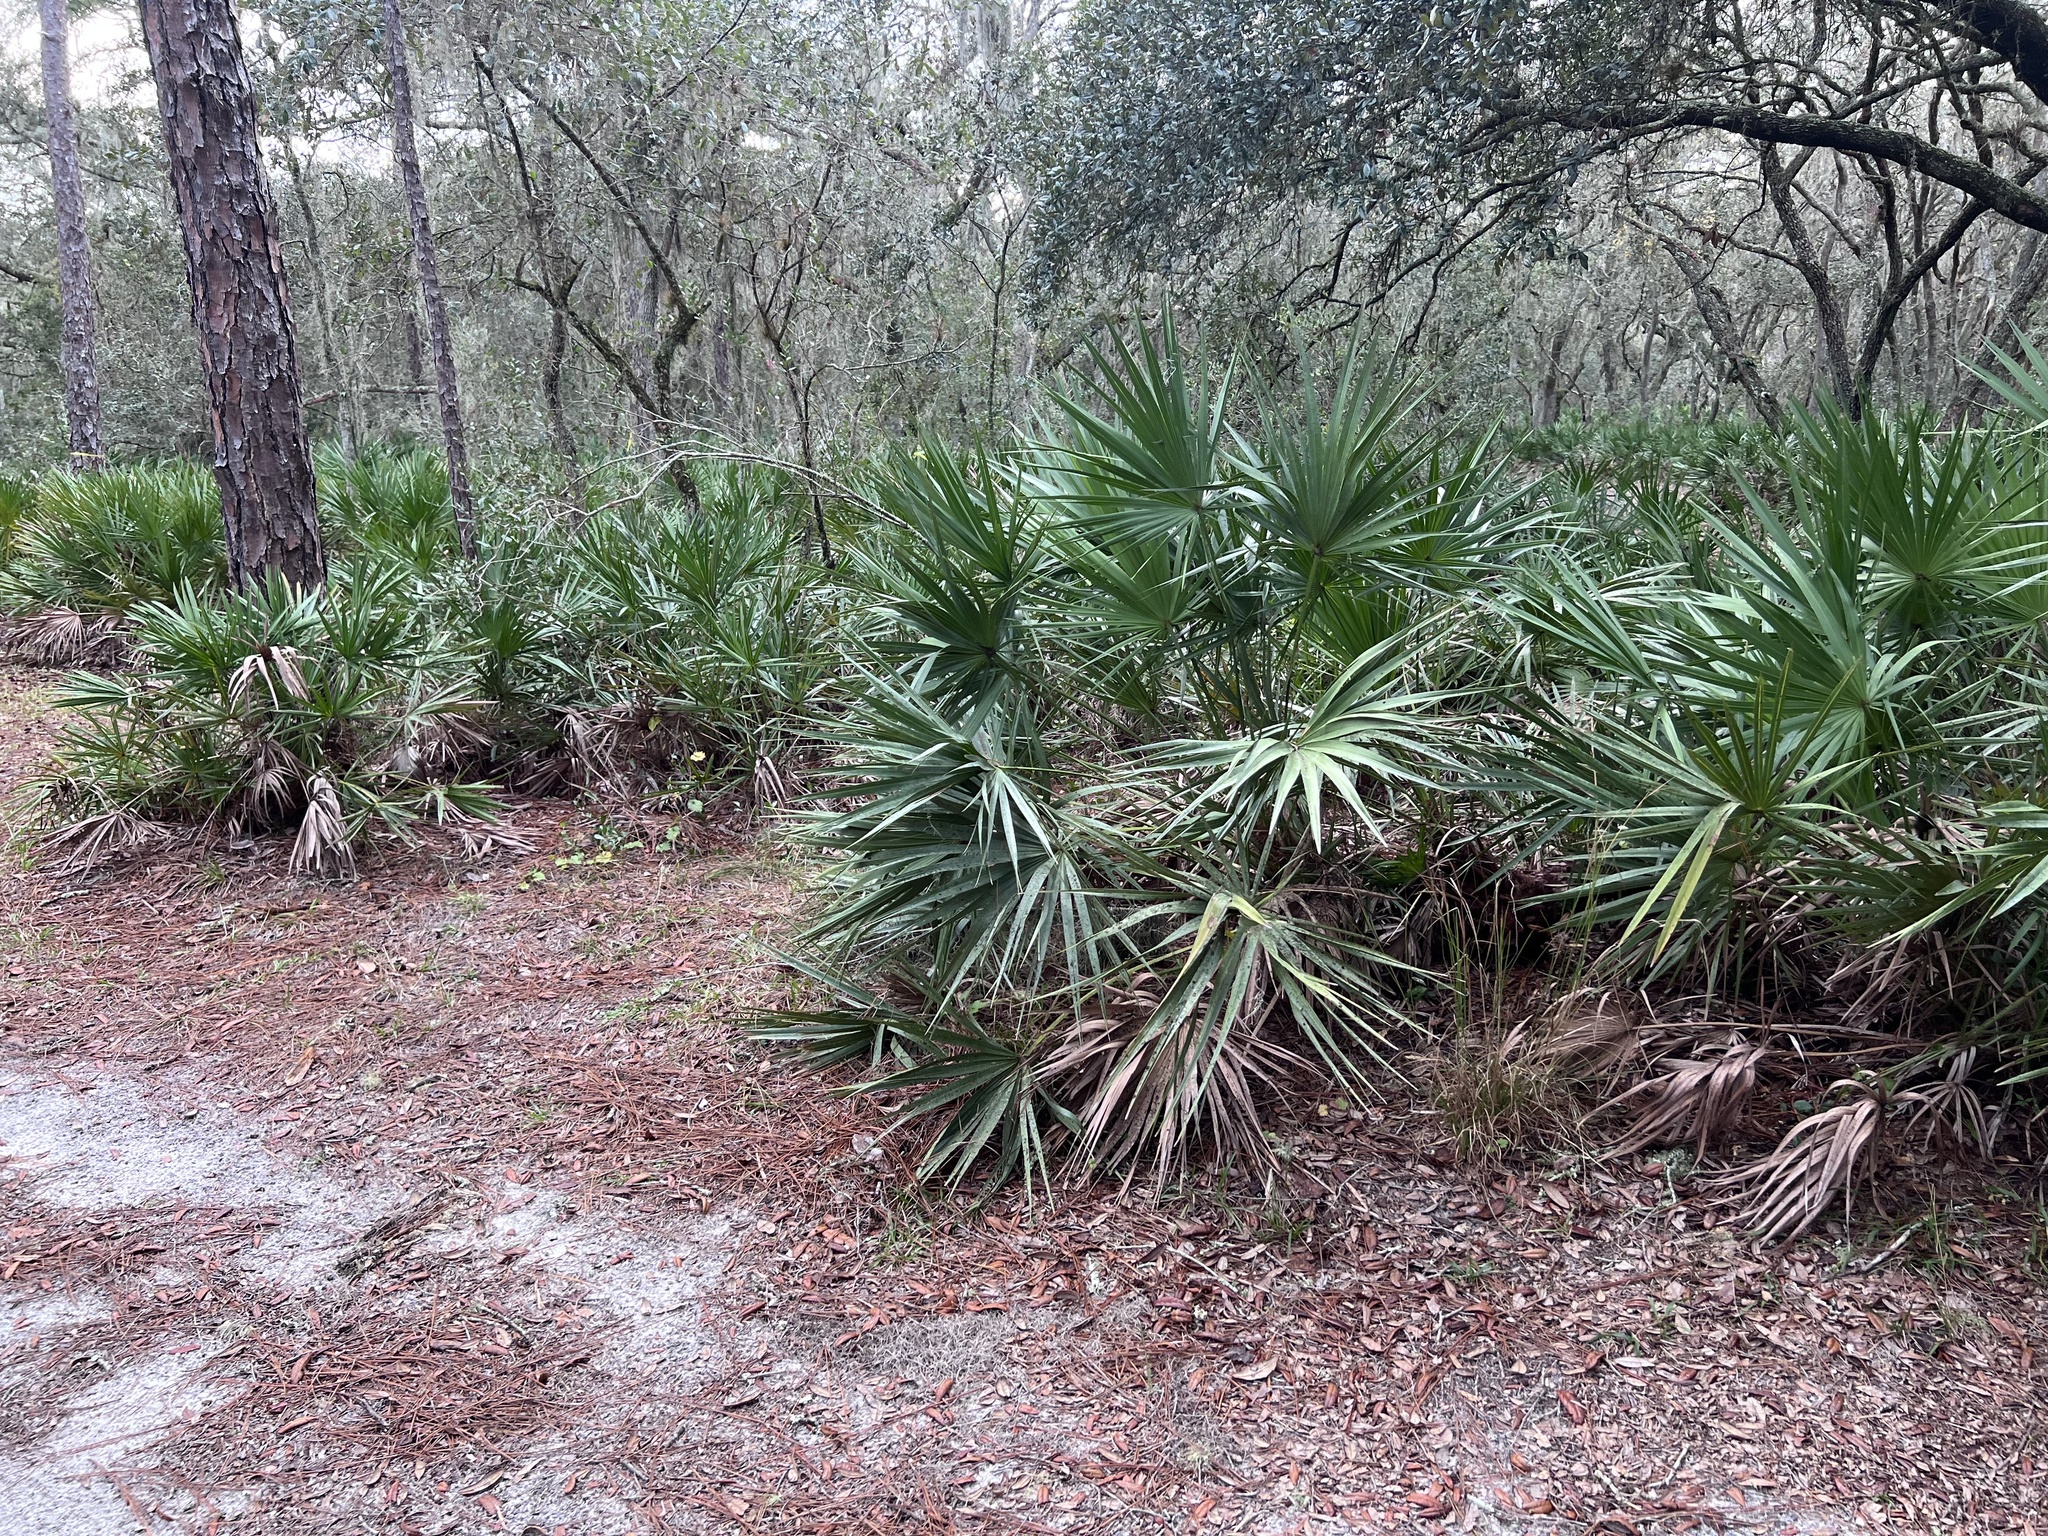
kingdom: Plantae
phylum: Tracheophyta
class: Liliopsida
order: Arecales
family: Arecaceae
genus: Serenoa
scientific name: Serenoa repens
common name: Saw-palmetto
